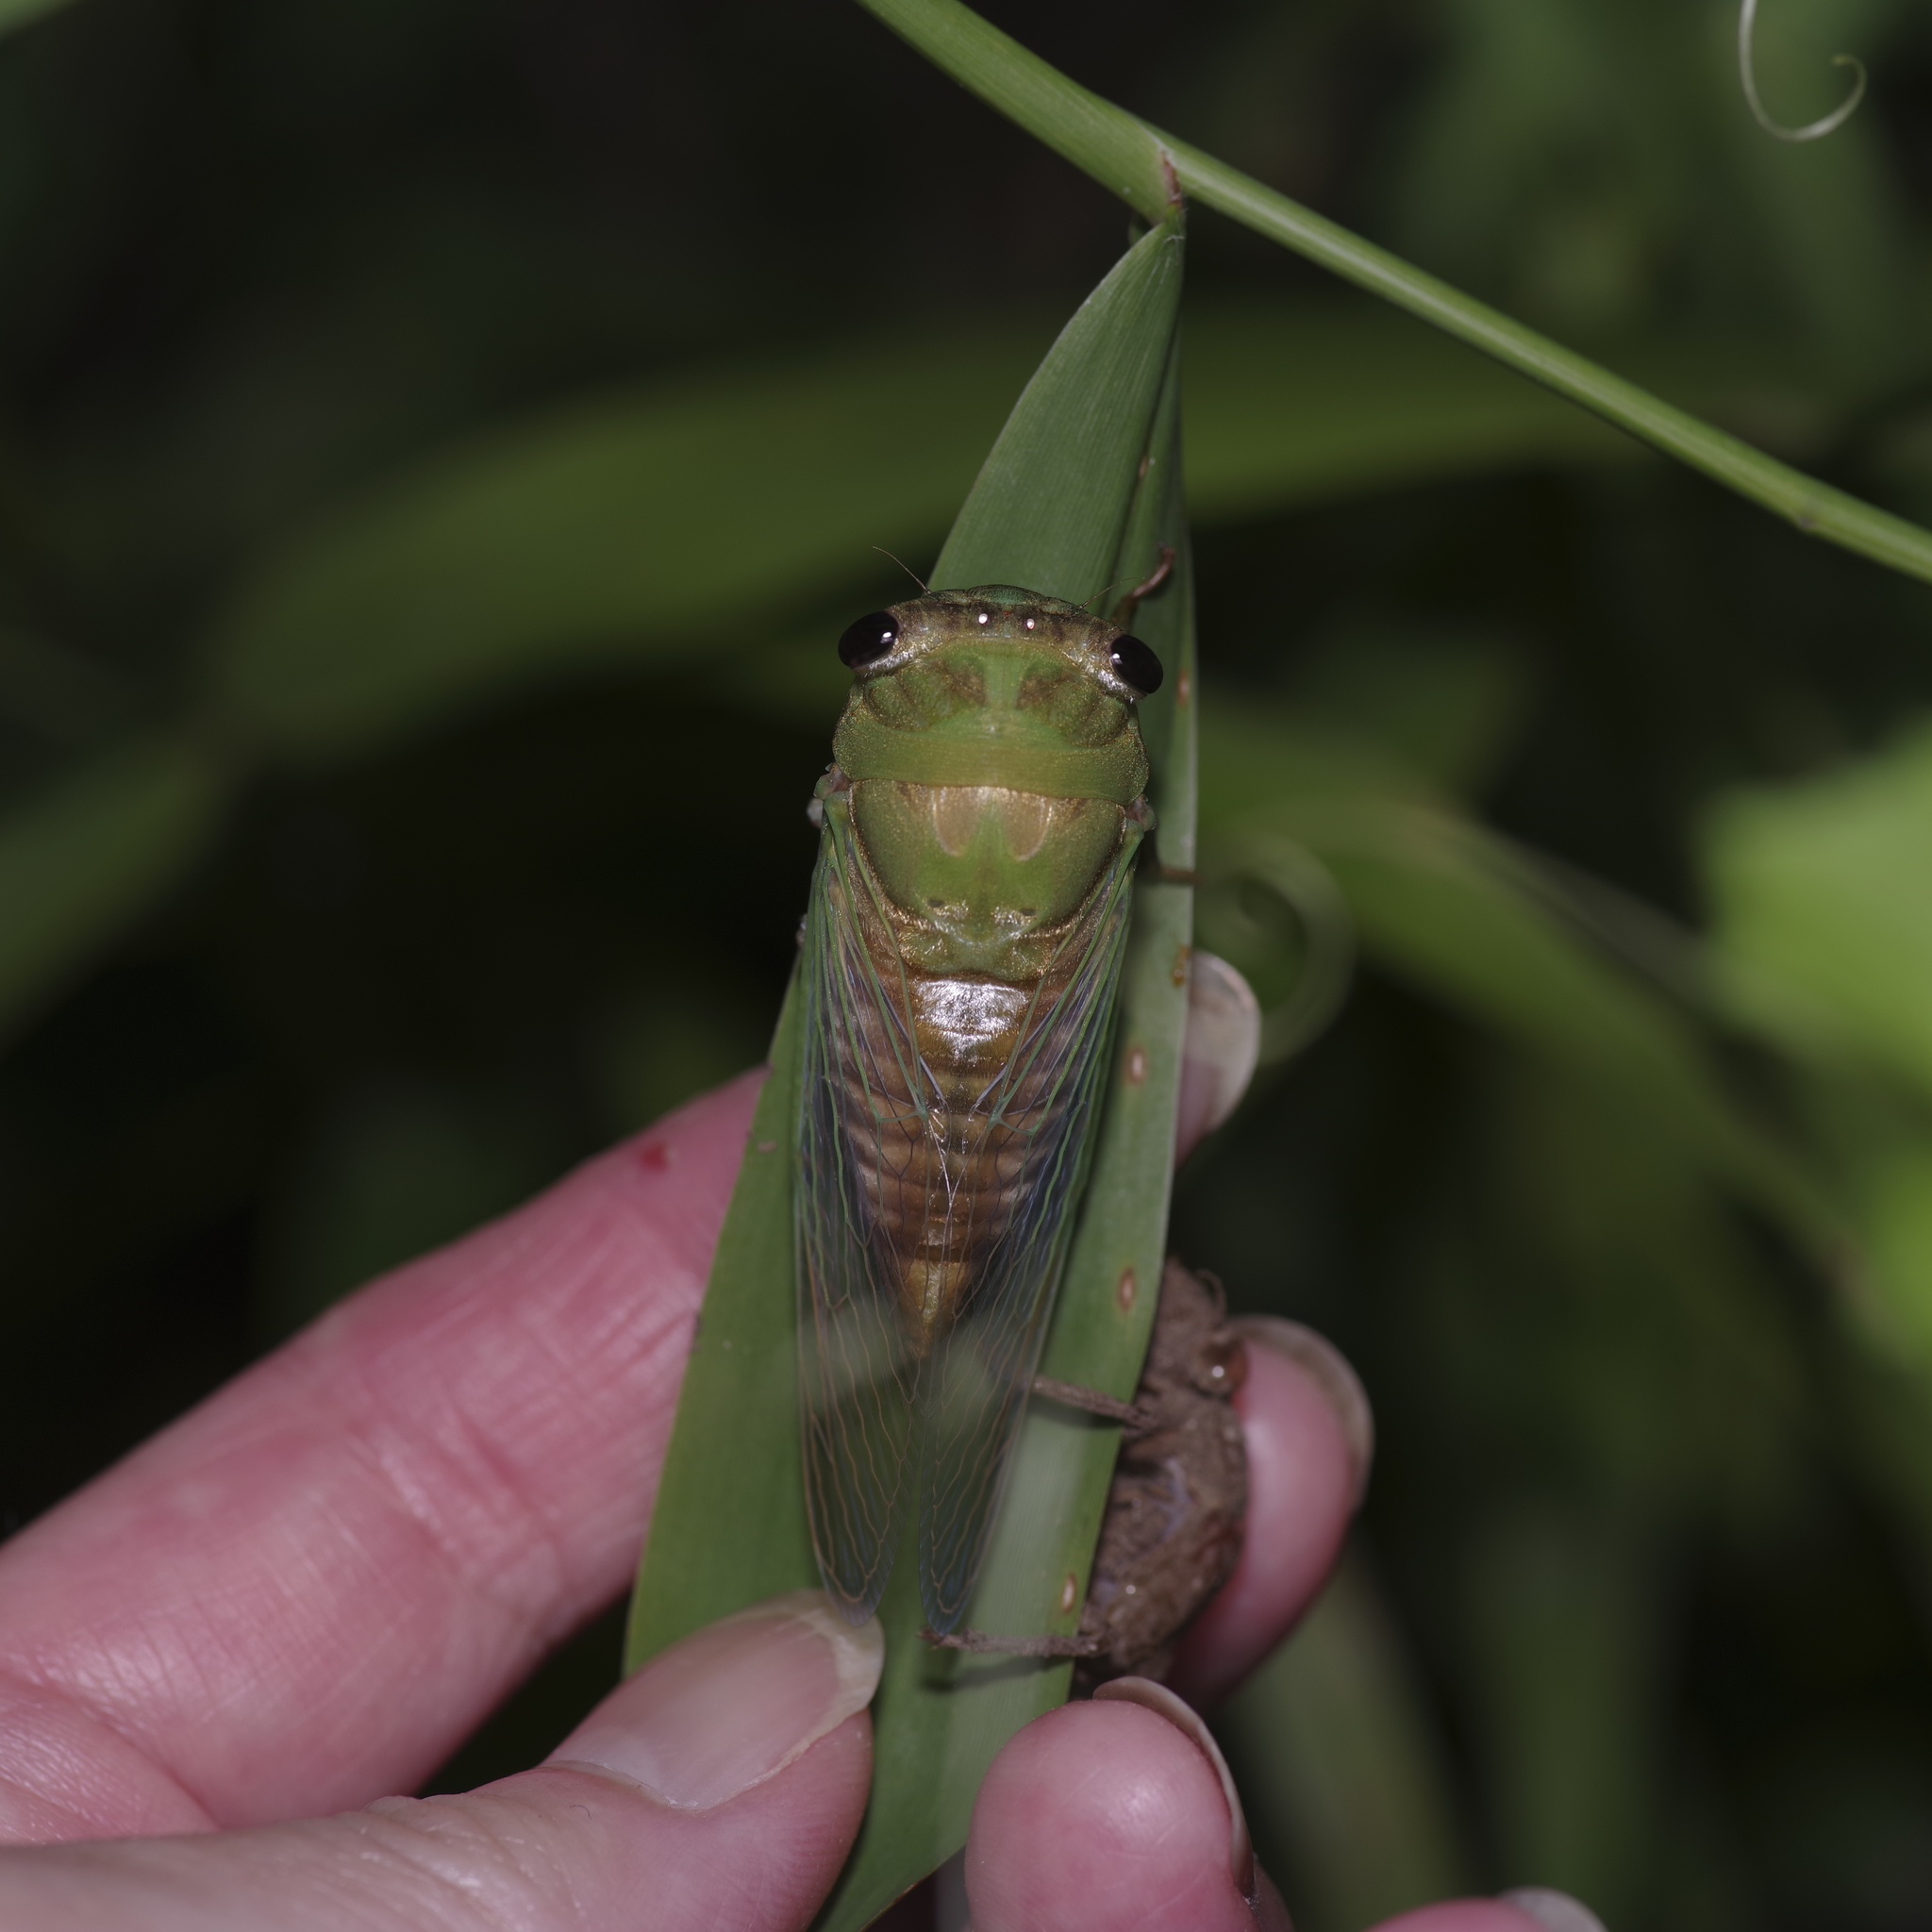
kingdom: Animalia
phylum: Arthropoda
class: Insecta
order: Hemiptera
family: Cicadidae
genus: Neotibicen
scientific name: Neotibicen superbus
